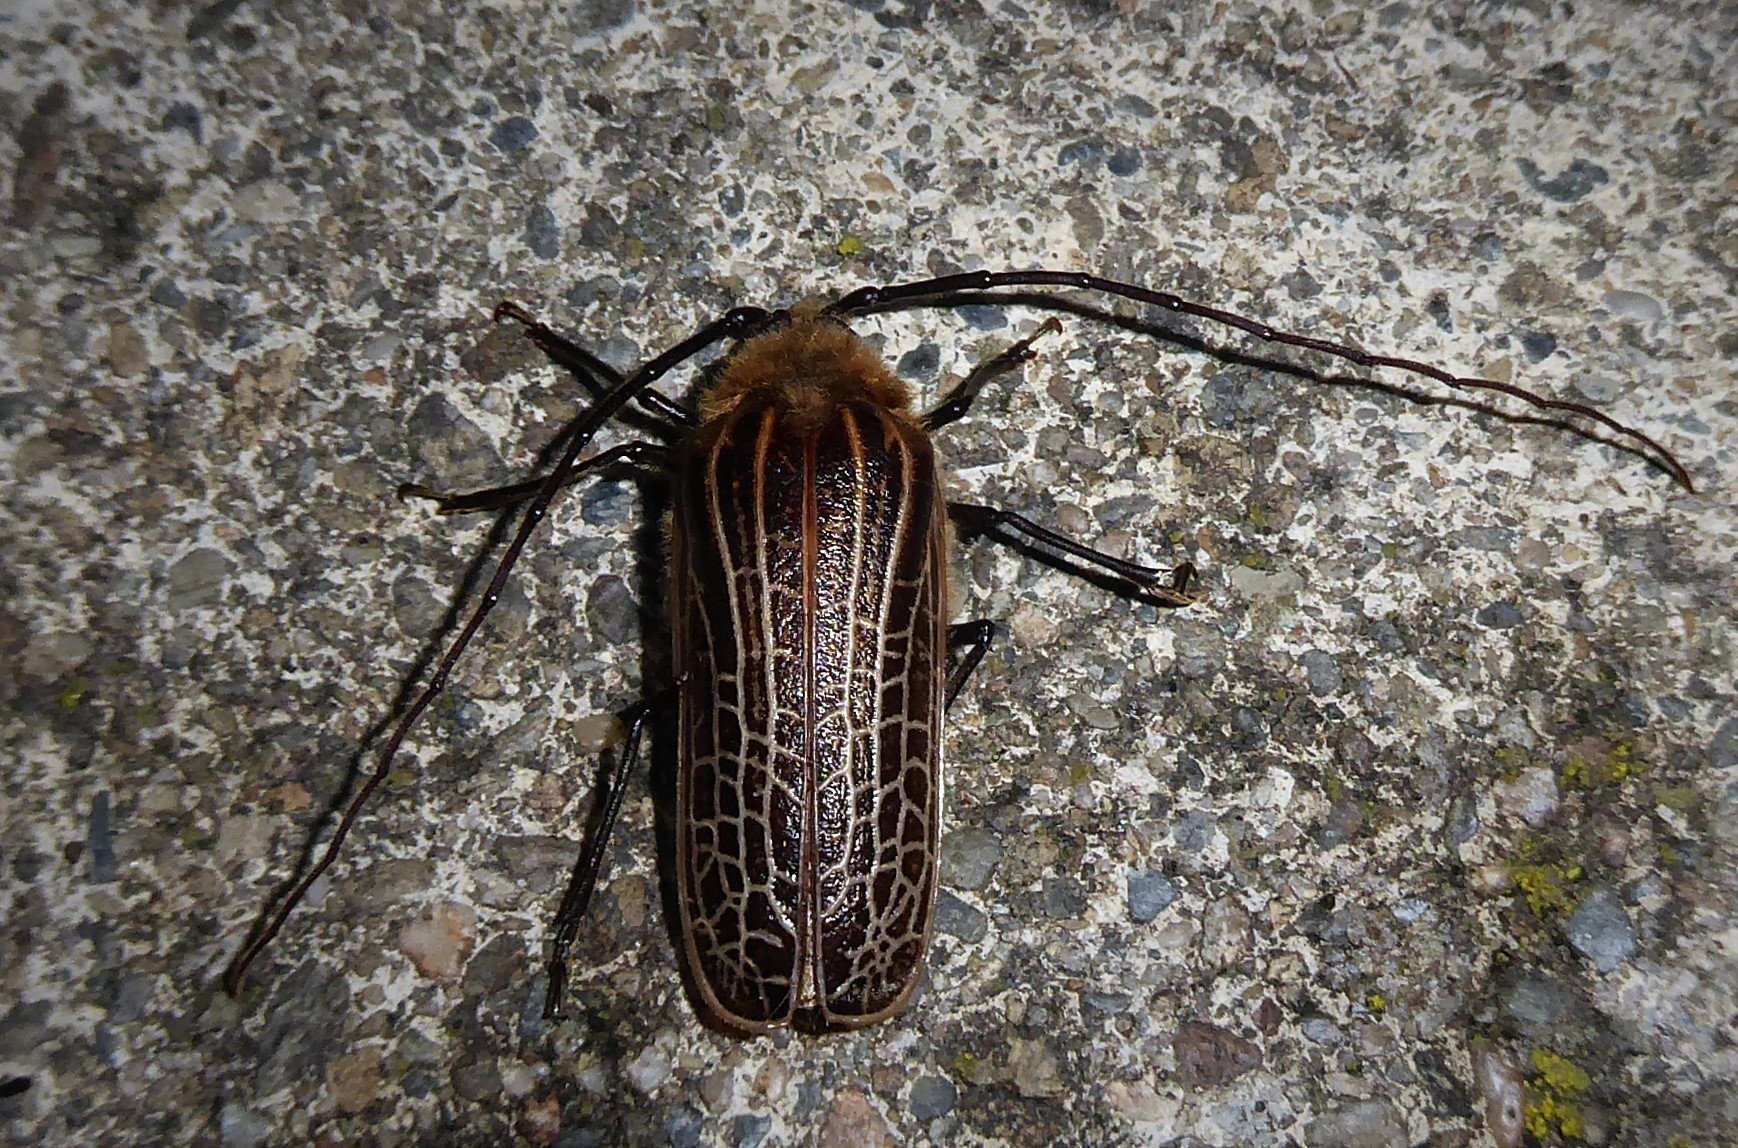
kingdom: Animalia
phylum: Arthropoda
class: Insecta
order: Coleoptera
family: Cerambycidae
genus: Prionoplus
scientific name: Prionoplus reticularis
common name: Huhu beetle
